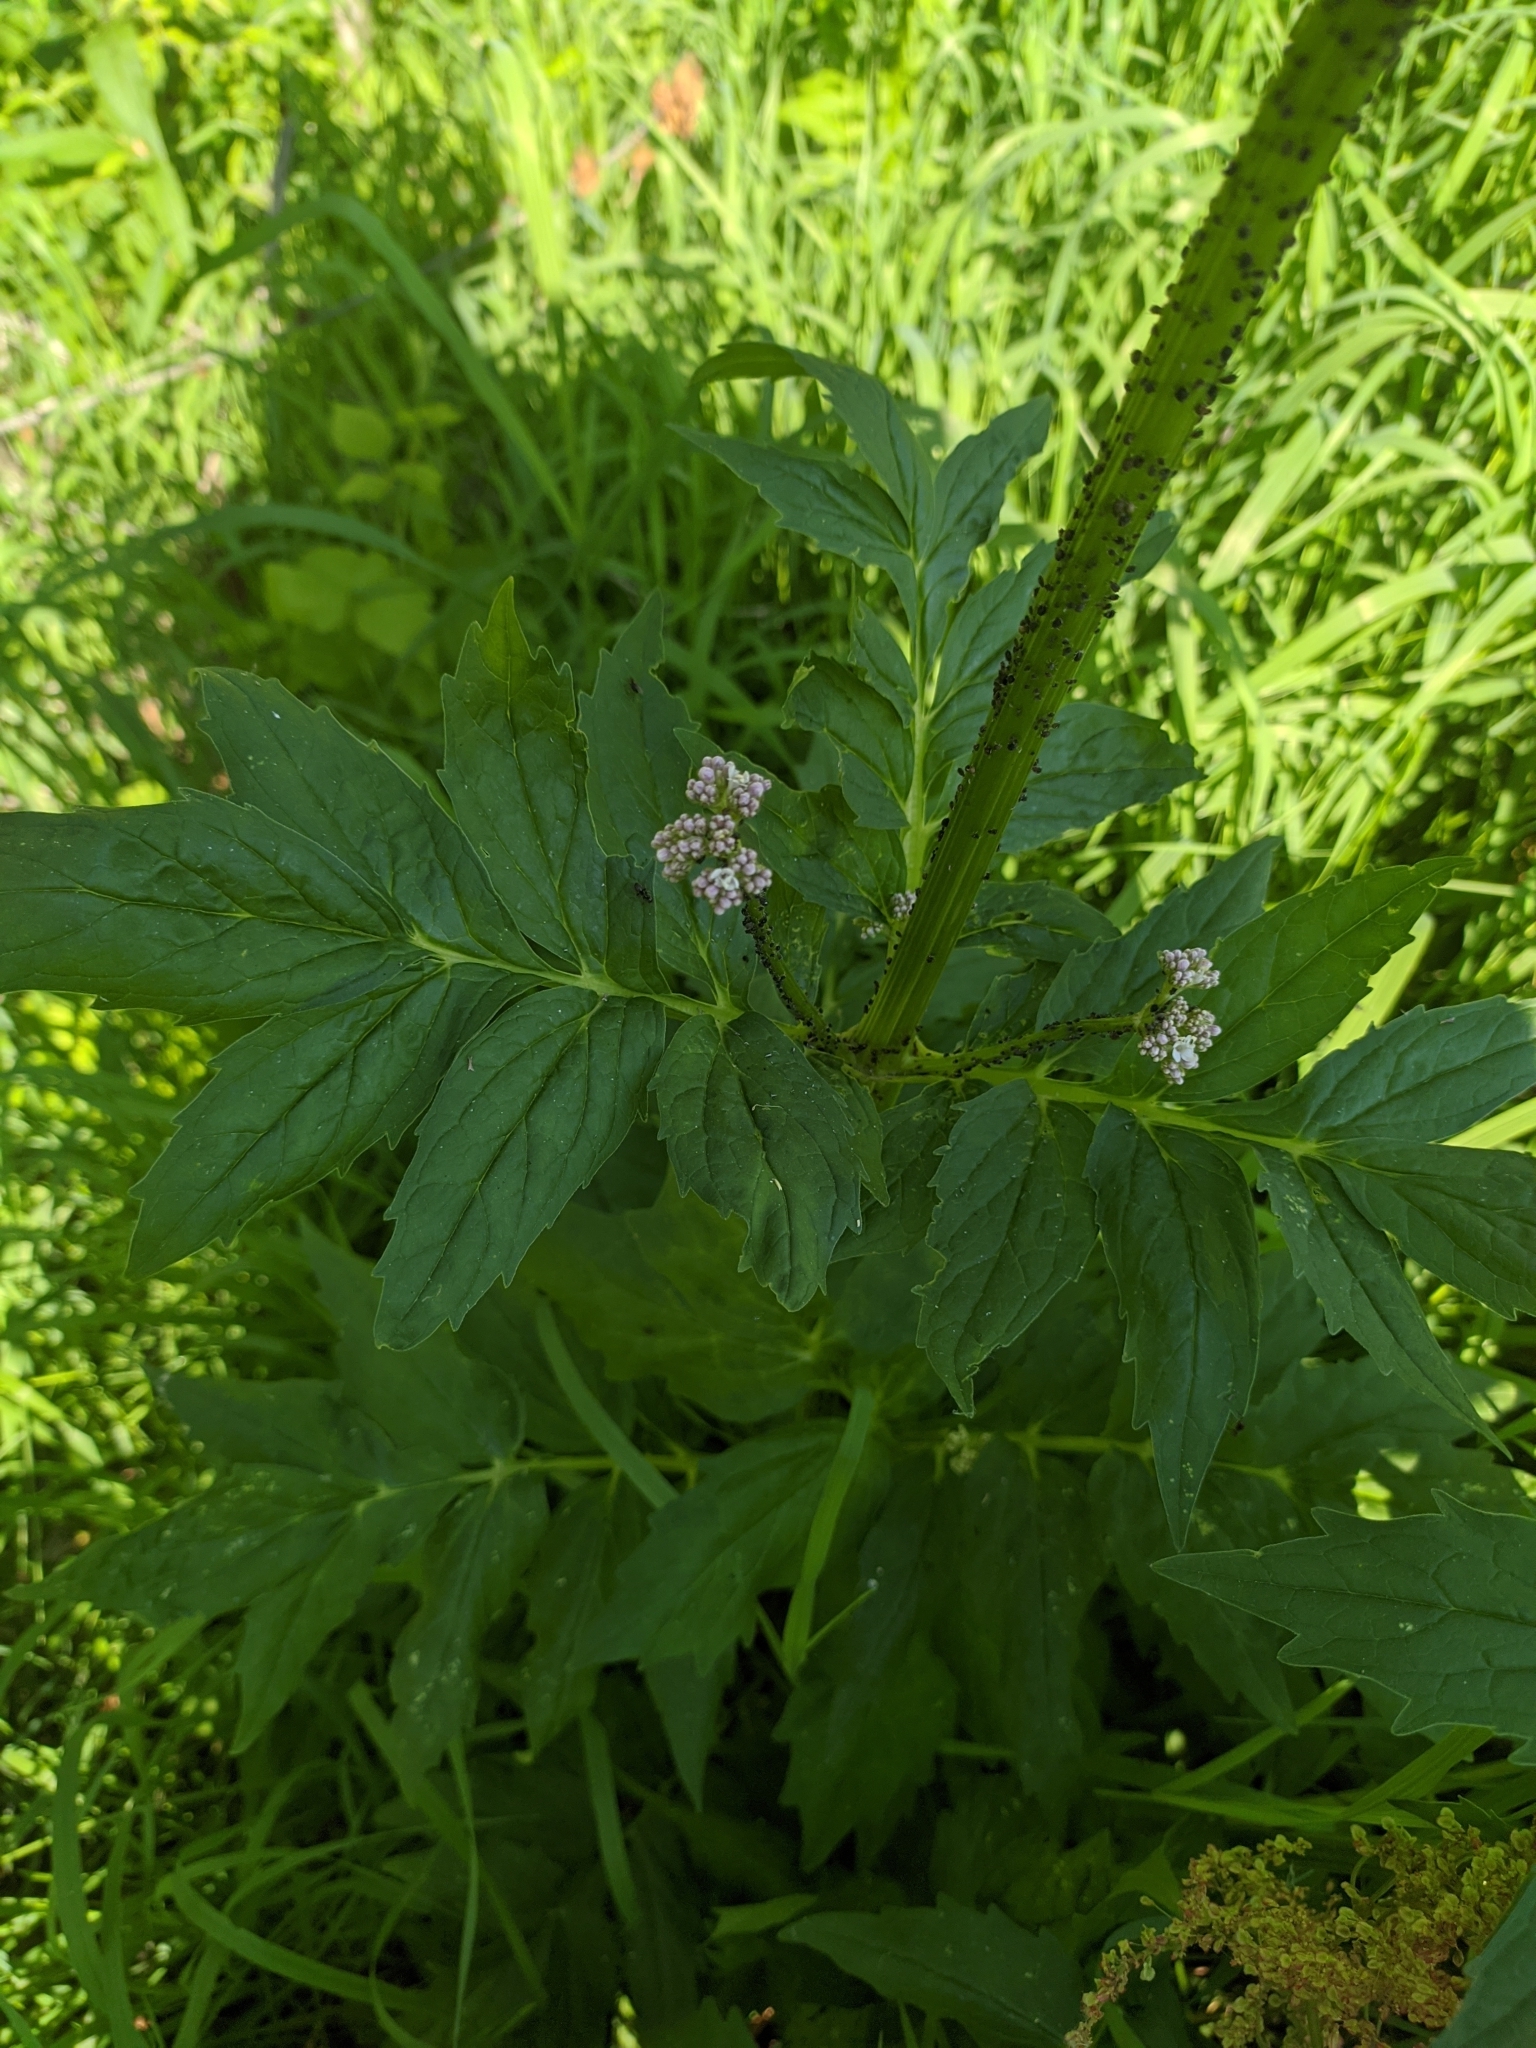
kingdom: Plantae
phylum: Tracheophyta
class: Magnoliopsida
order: Dipsacales
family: Caprifoliaceae
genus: Valeriana
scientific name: Valeriana officinalis
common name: Common valerian
